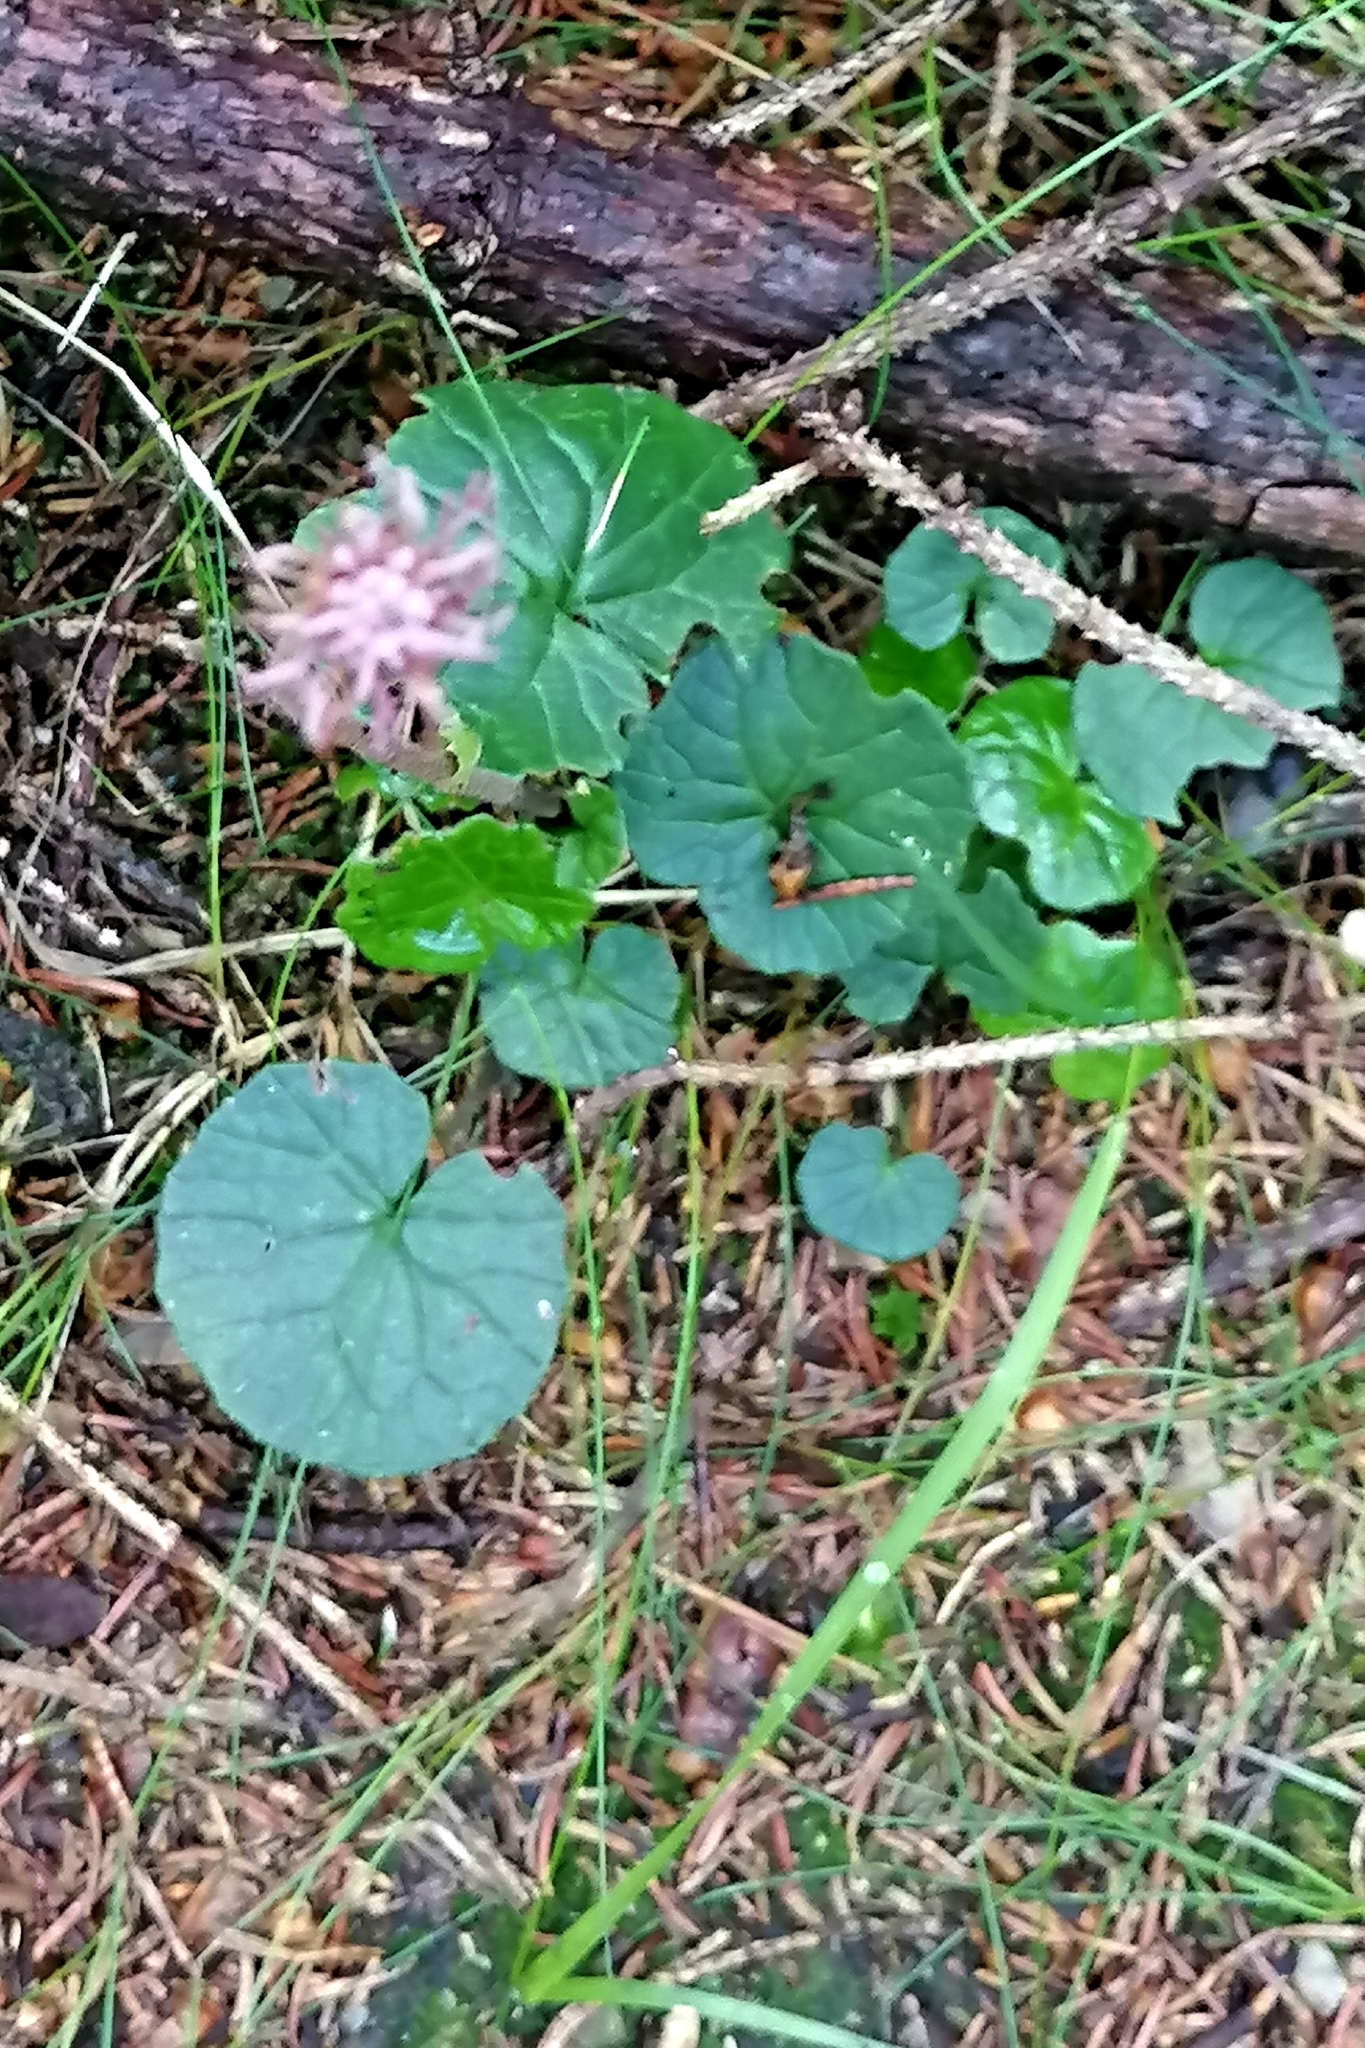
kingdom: Plantae
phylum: Tracheophyta
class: Magnoliopsida
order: Asterales
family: Asteraceae
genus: Homogyne
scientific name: Homogyne alpina
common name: Purple colt's-foot
